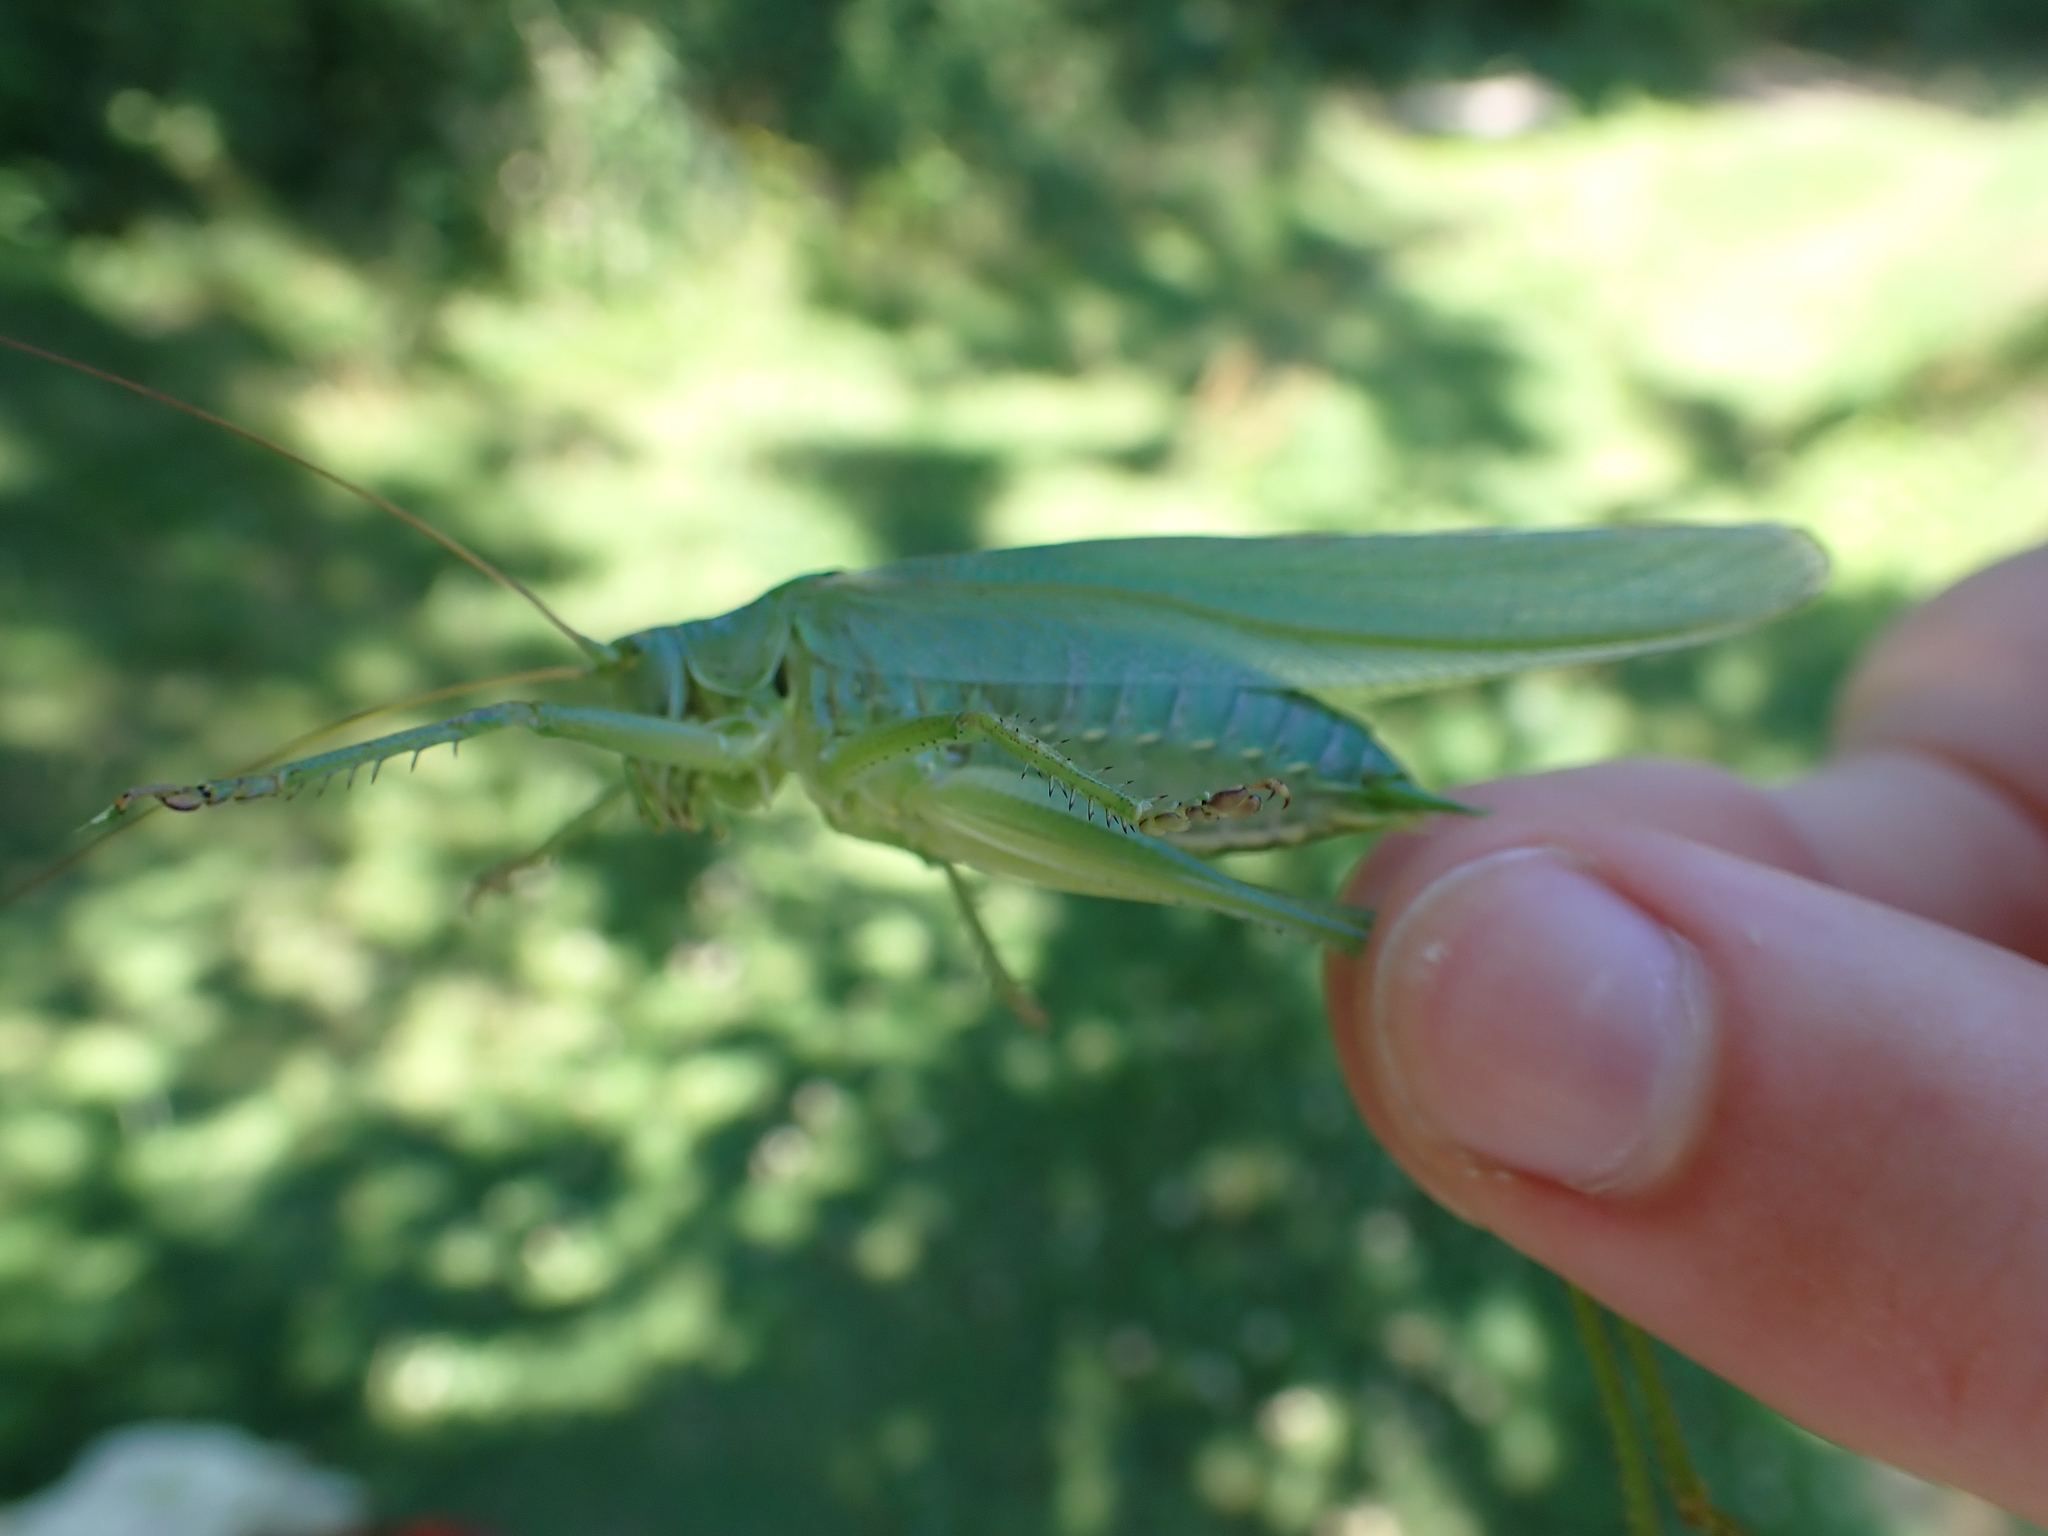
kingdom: Animalia
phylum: Arthropoda
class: Insecta
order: Orthoptera
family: Tettigoniidae
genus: Tettigonia
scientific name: Tettigonia viridissima
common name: Great green bush-cricket
